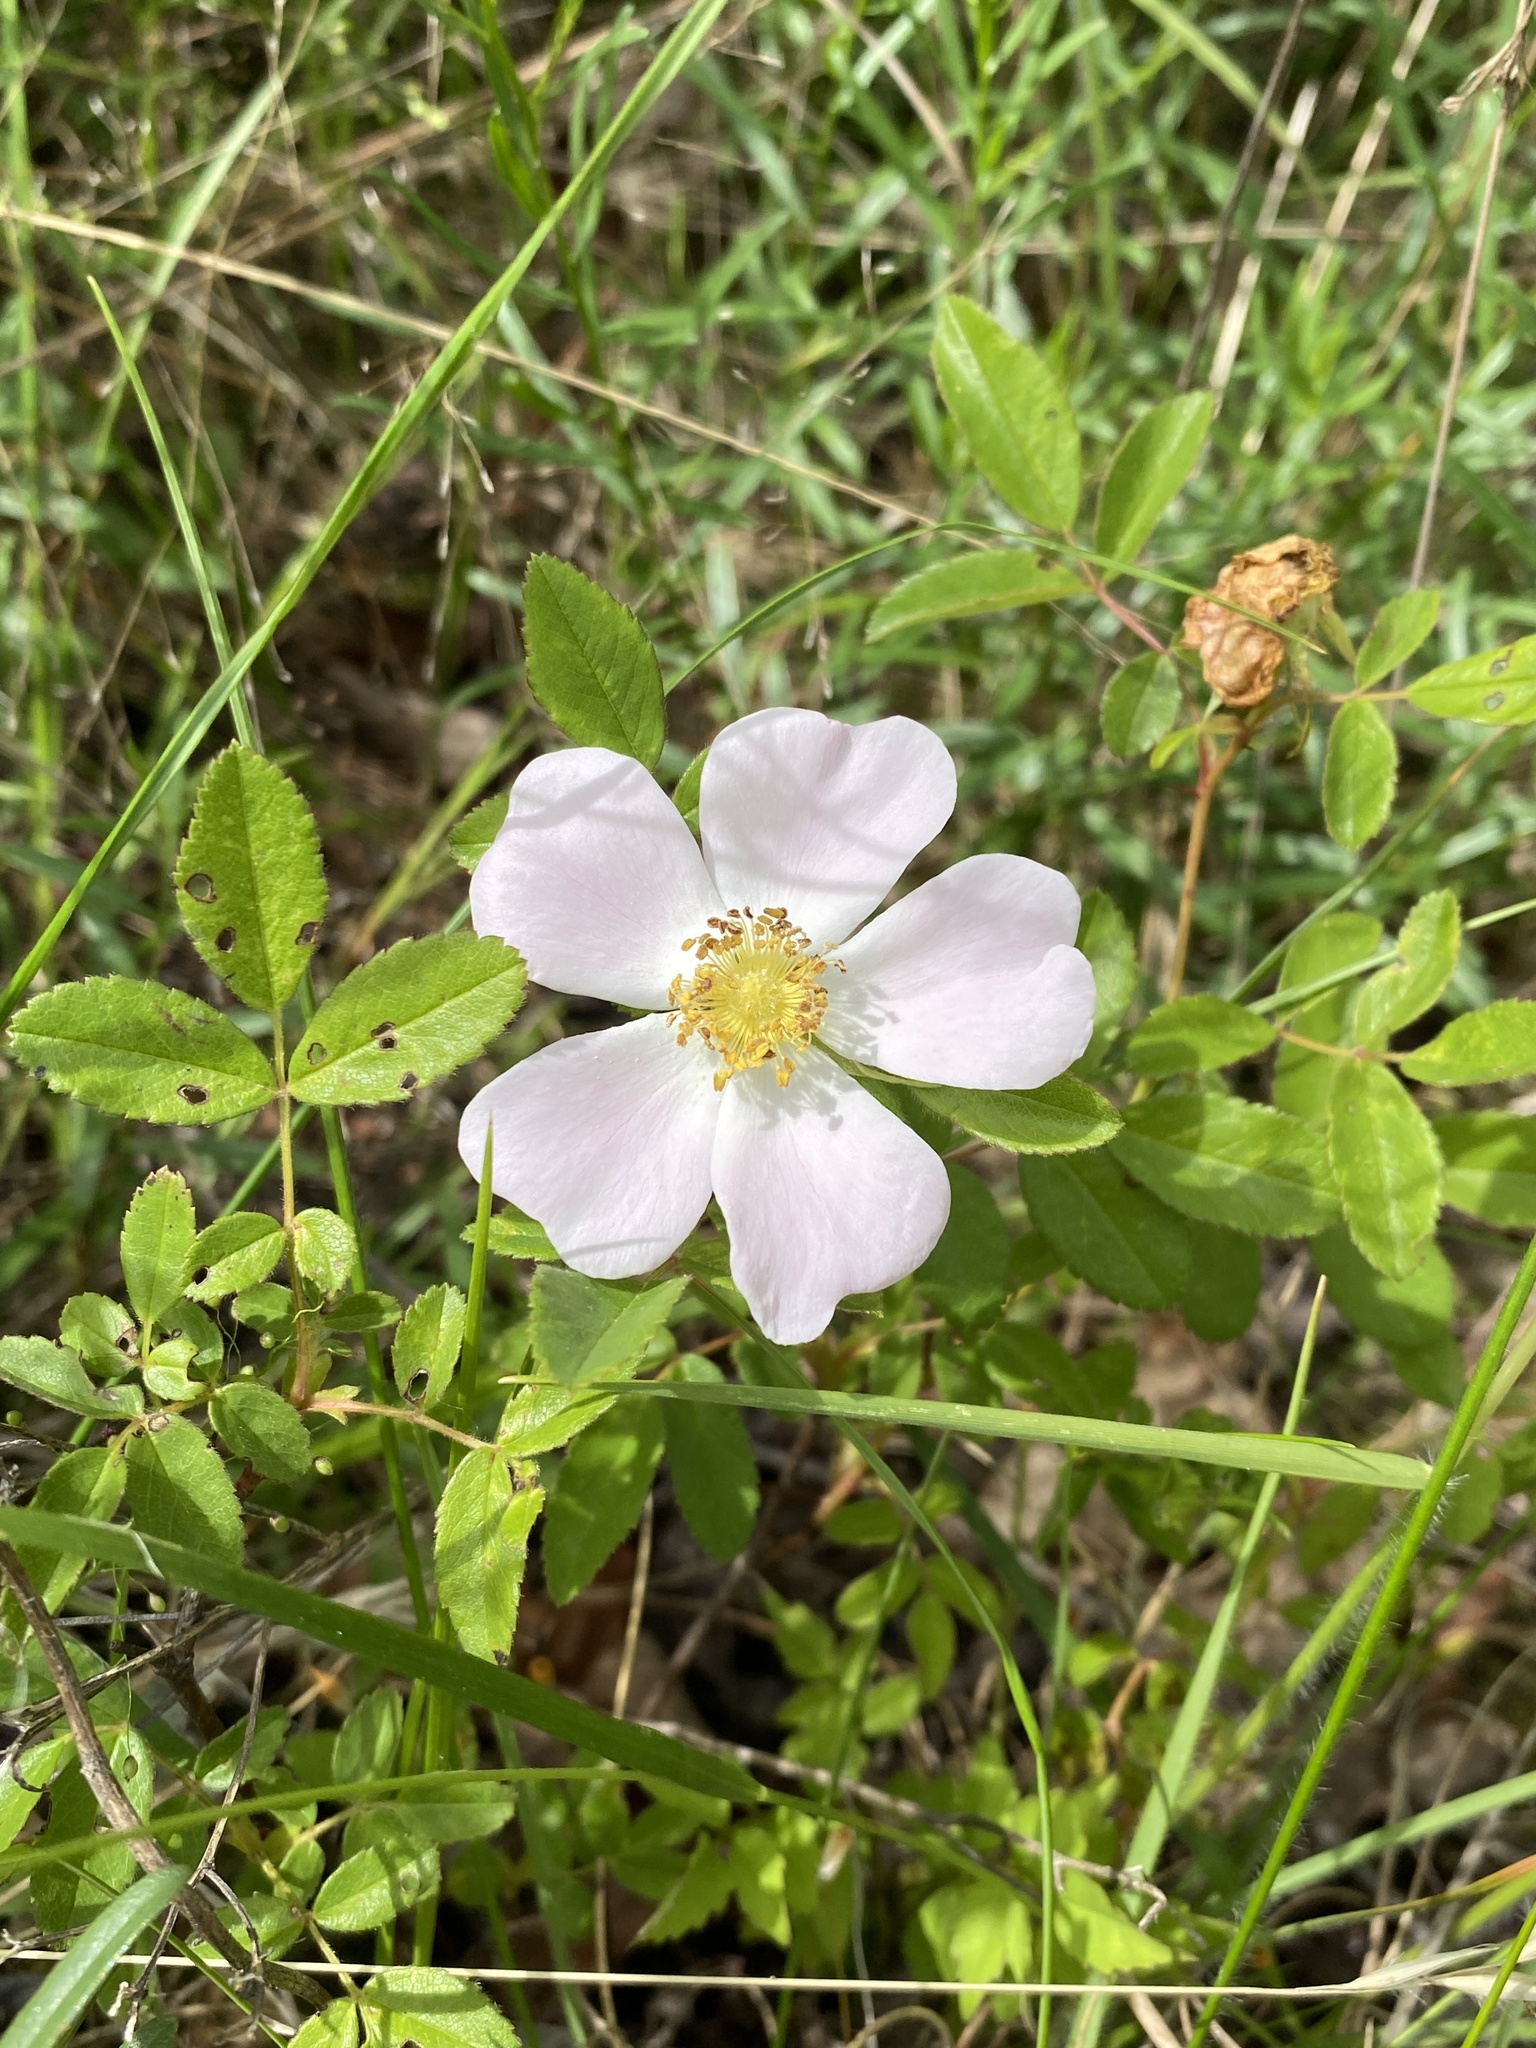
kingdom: Plantae
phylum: Tracheophyta
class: Magnoliopsida
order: Rosales
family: Rosaceae
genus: Rosa
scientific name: Rosa carolina
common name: Pasture rose
